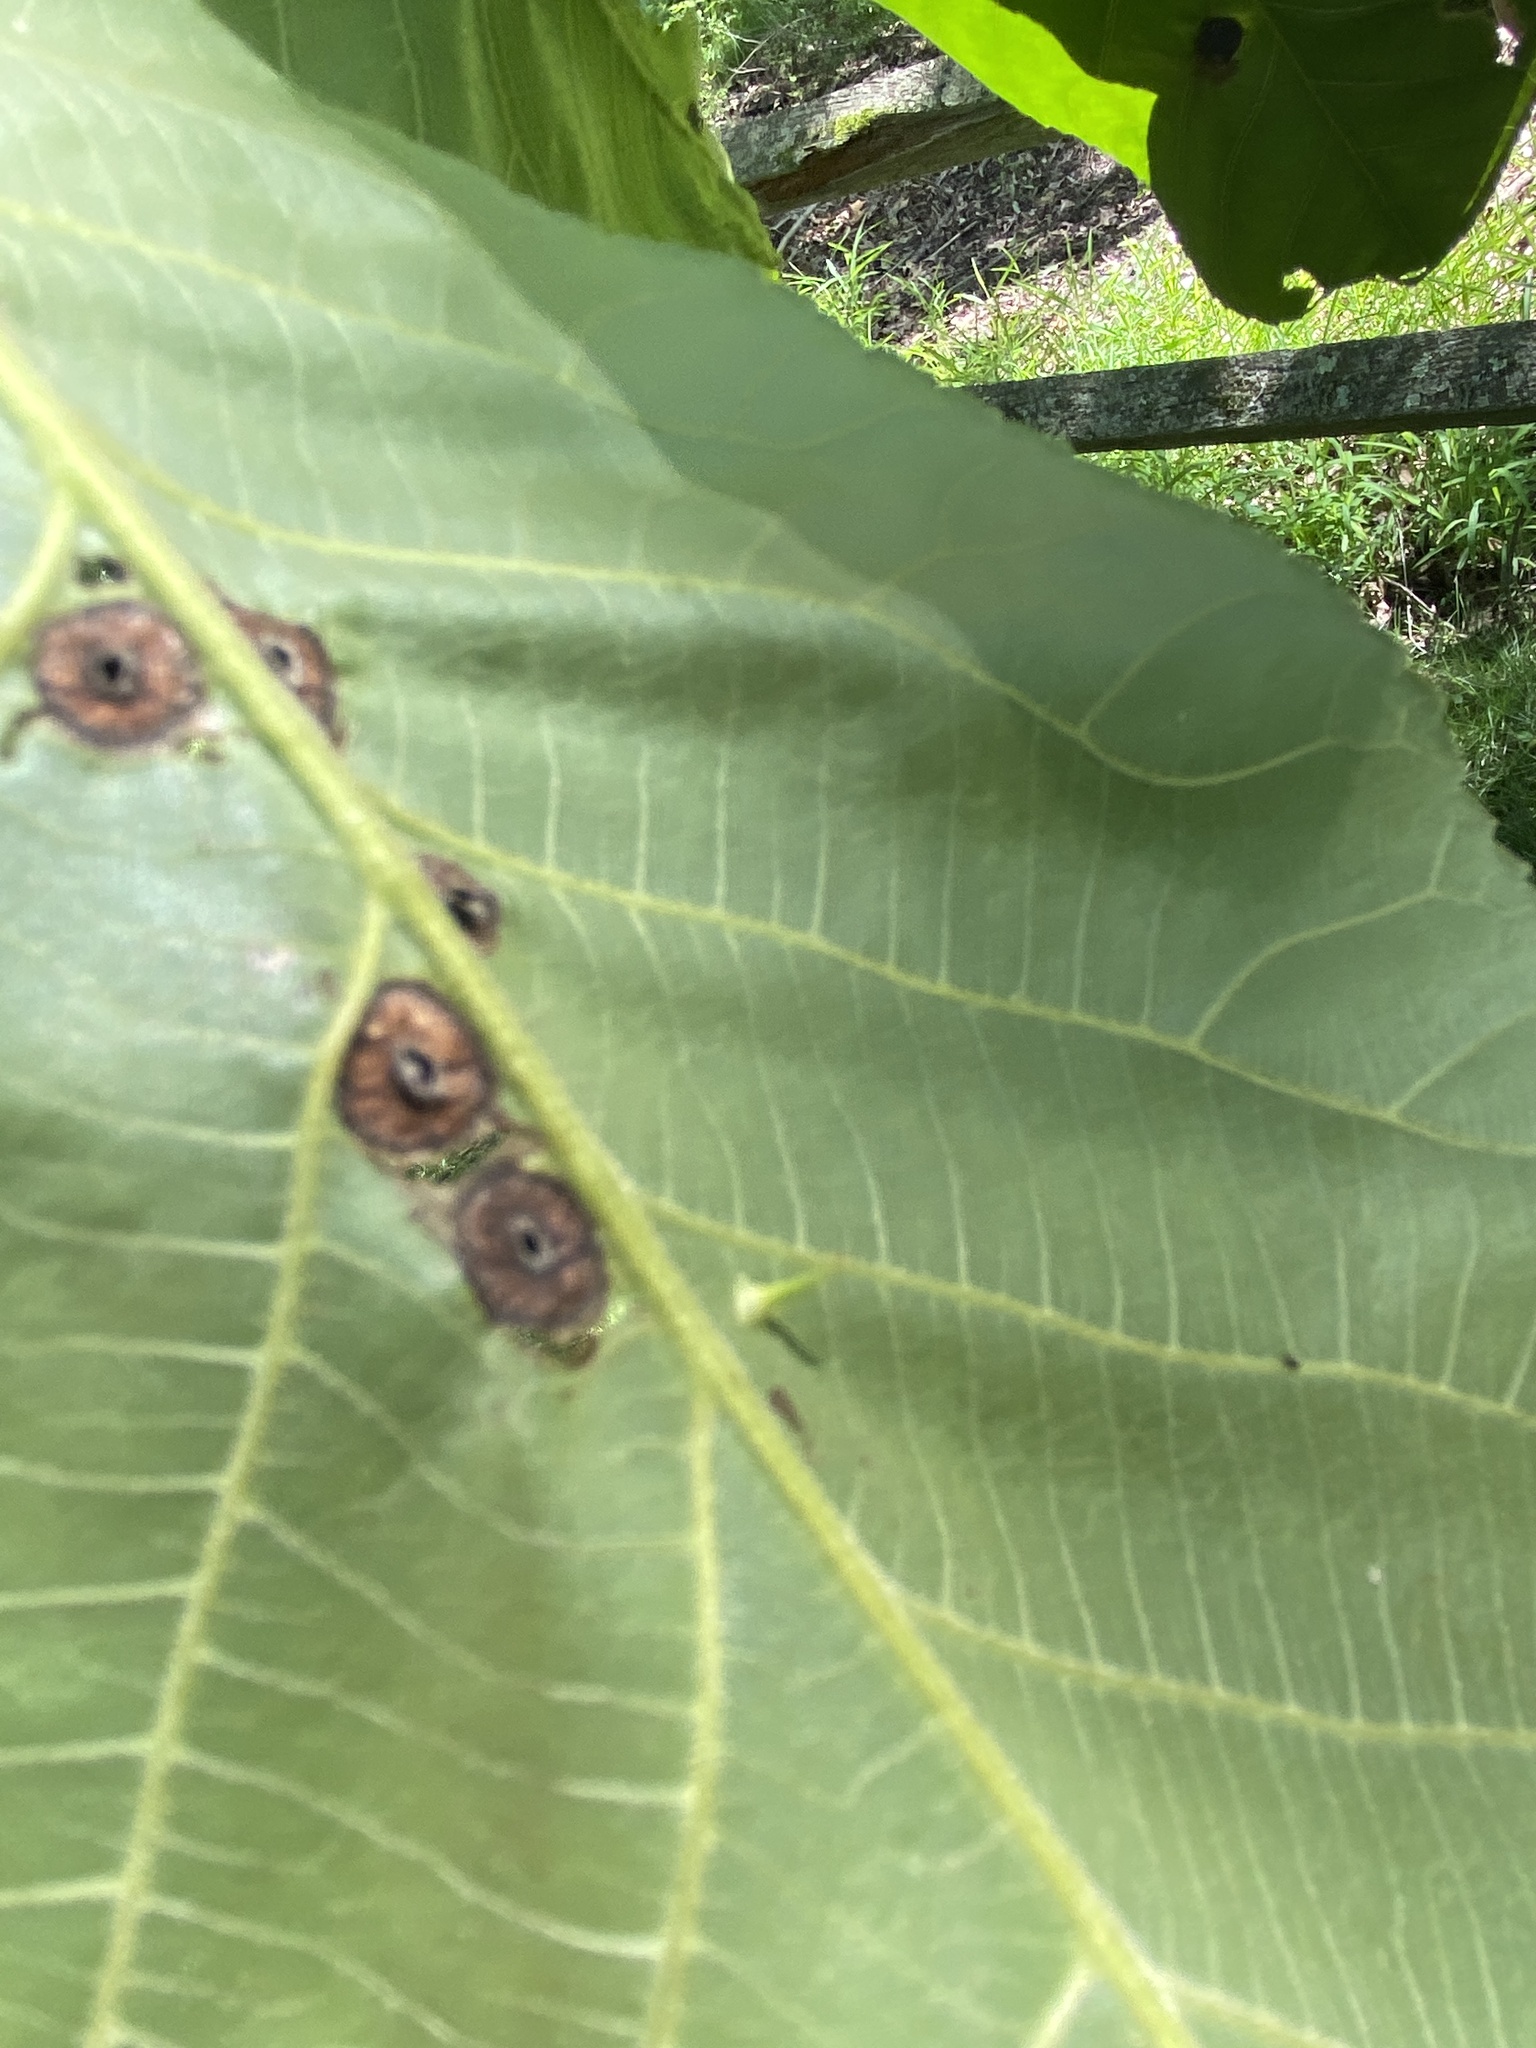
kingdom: Animalia
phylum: Arthropoda
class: Insecta
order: Hemiptera
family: Phylloxeridae
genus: Phylloxera
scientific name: Phylloxera
